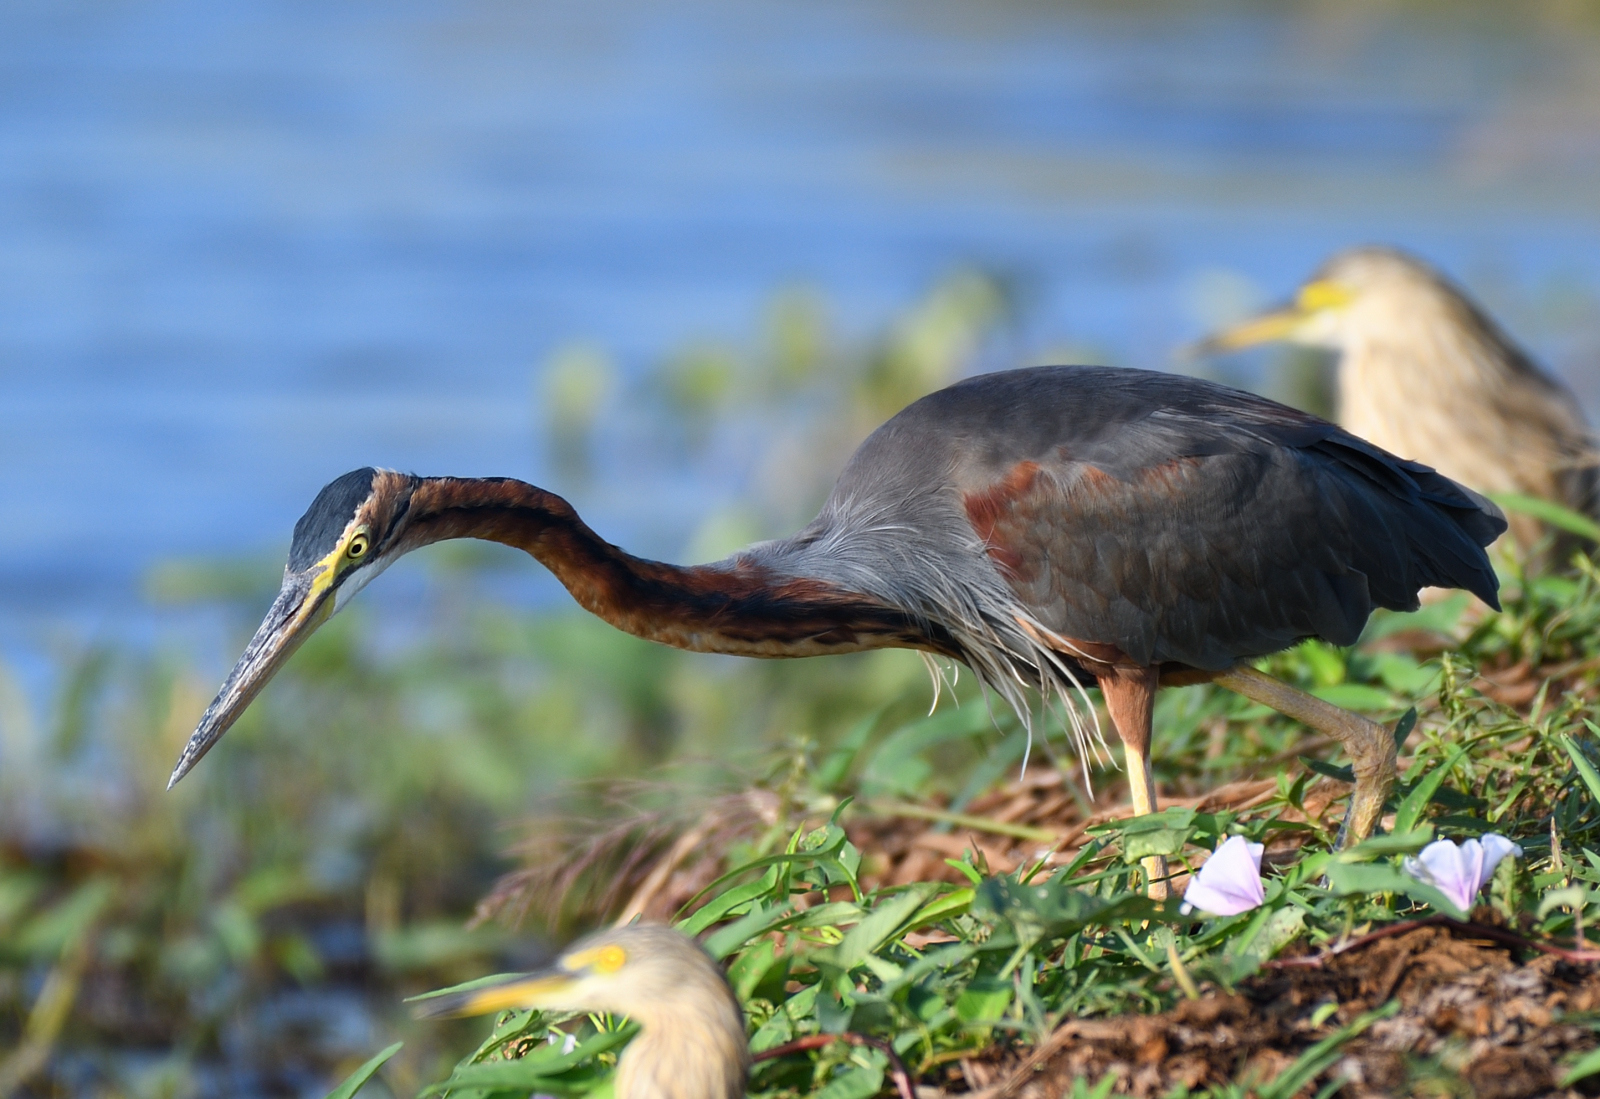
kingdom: Animalia
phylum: Chordata
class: Aves
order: Pelecaniformes
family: Ardeidae
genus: Ardea
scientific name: Ardea purpurea
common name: Purple heron
